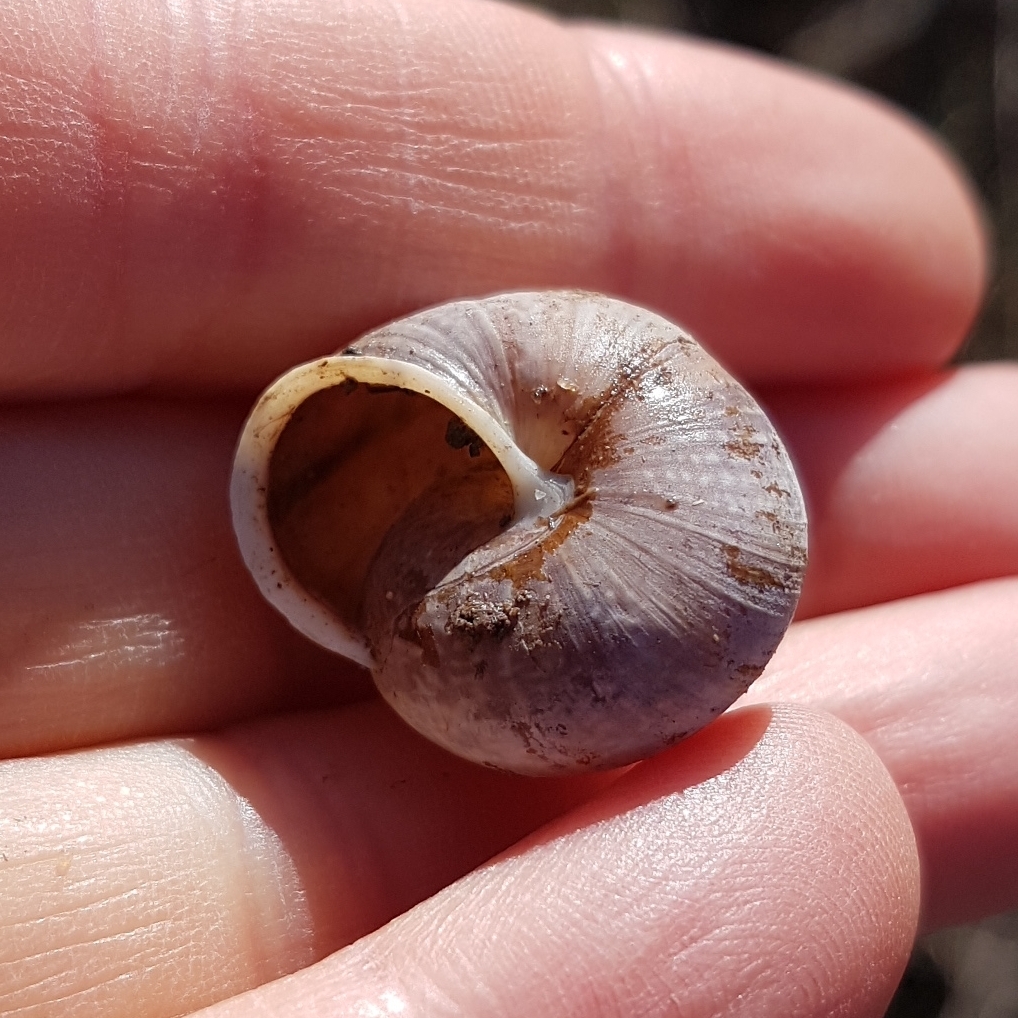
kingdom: Animalia
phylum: Mollusca
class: Gastropoda
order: Stylommatophora
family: Helicidae
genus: Arianta
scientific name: Arianta arbustorum
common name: Copse snail
